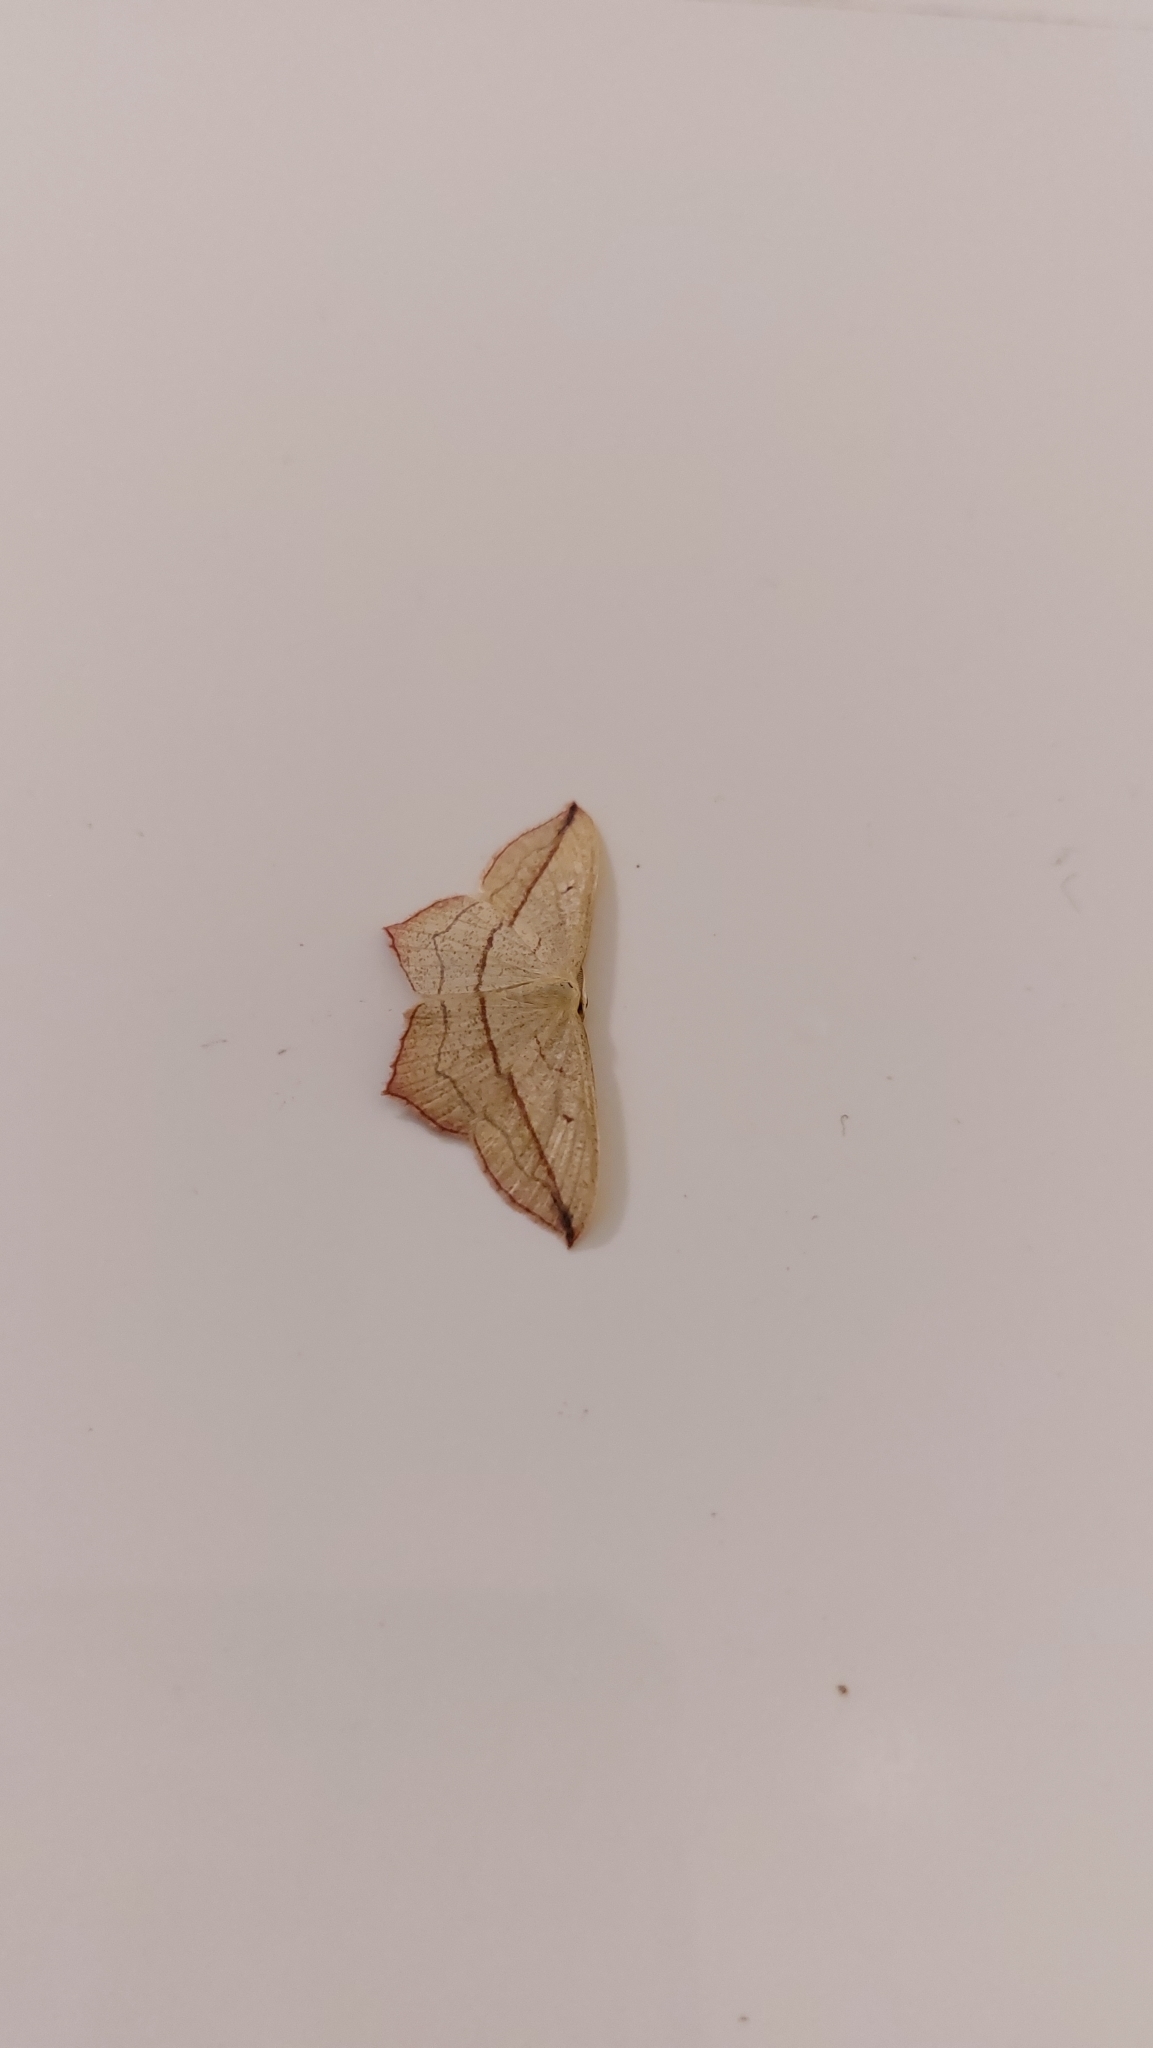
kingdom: Animalia
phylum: Arthropoda
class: Insecta
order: Lepidoptera
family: Geometridae
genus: Timandra
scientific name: Timandra comae
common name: Blood-vein
